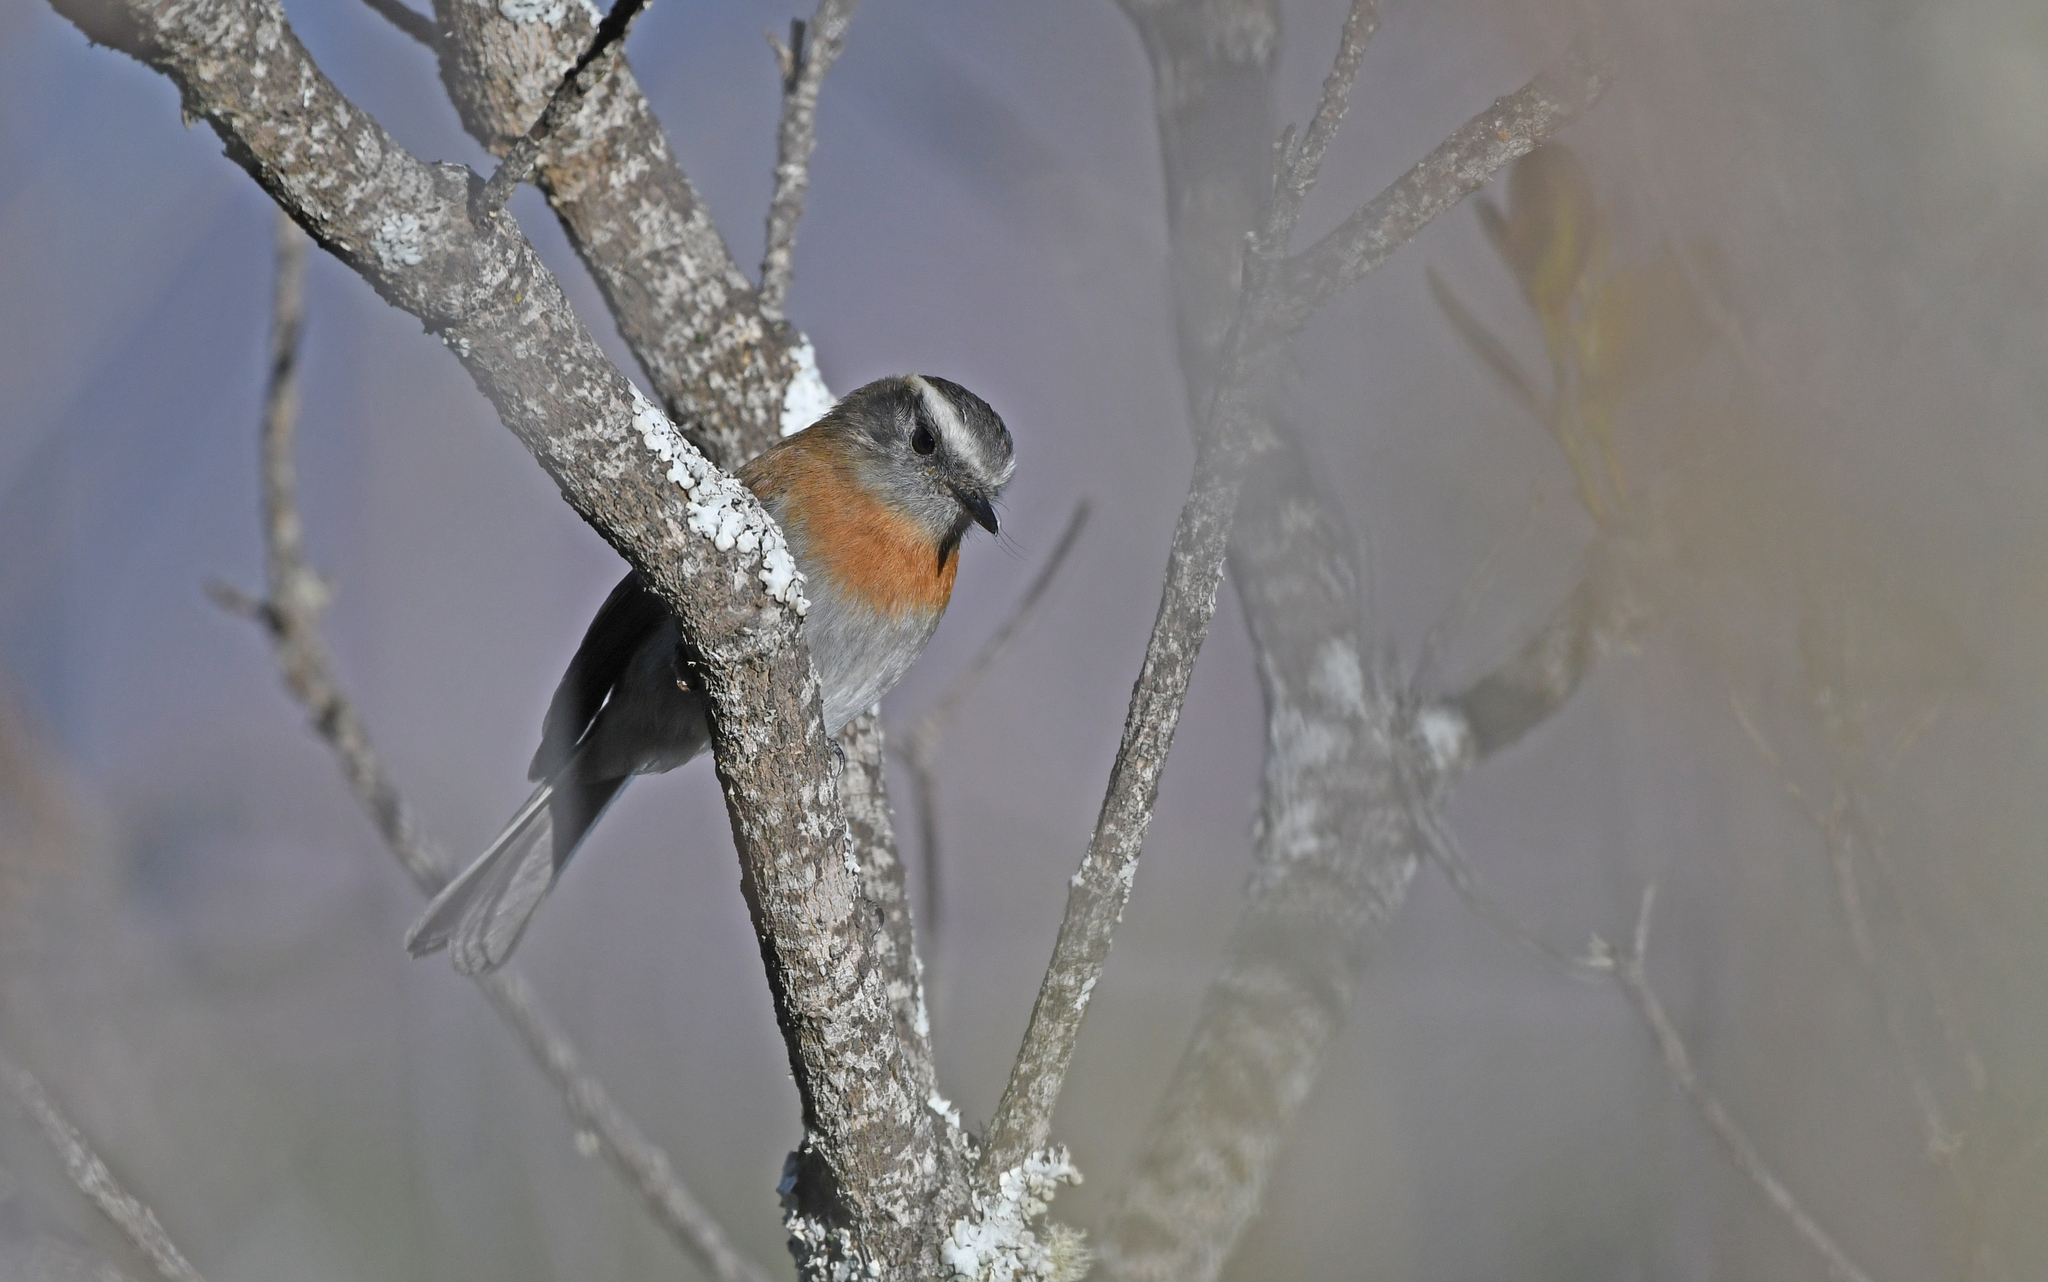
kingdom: Animalia
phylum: Chordata
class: Aves
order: Passeriformes
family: Tyrannidae
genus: Ochthoeca
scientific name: Ochthoeca rufipectoralis
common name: Rufous-breasted chat-tyrant
